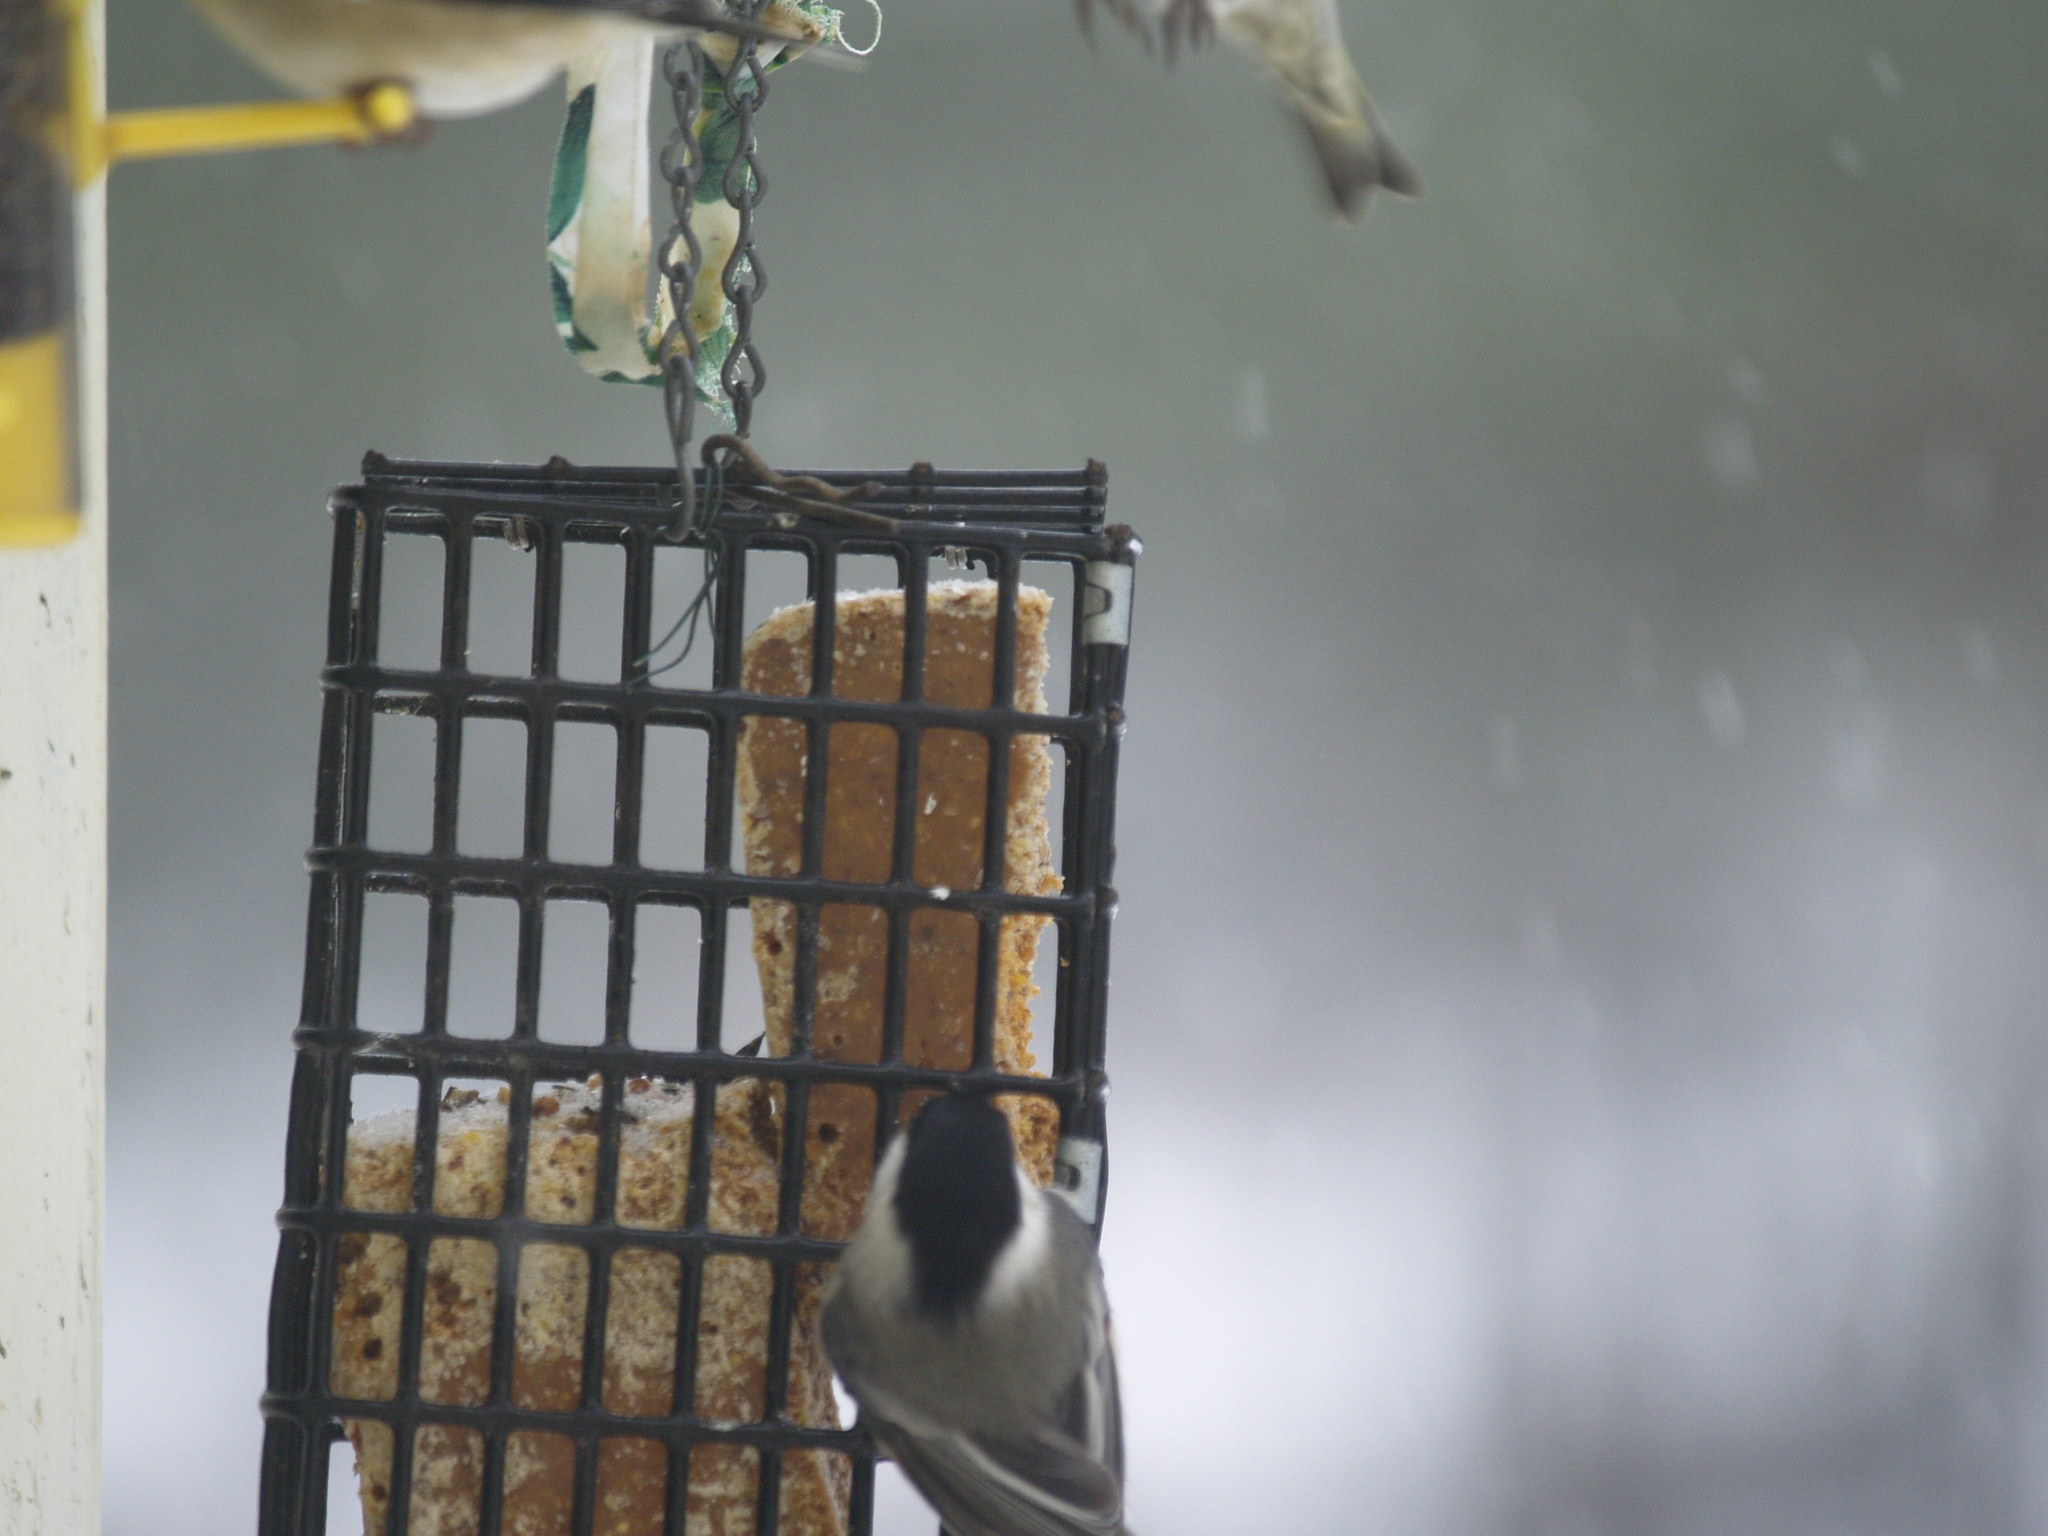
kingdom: Animalia
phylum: Chordata
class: Aves
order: Passeriformes
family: Paridae
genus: Poecile
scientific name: Poecile atricapillus
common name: Black-capped chickadee
